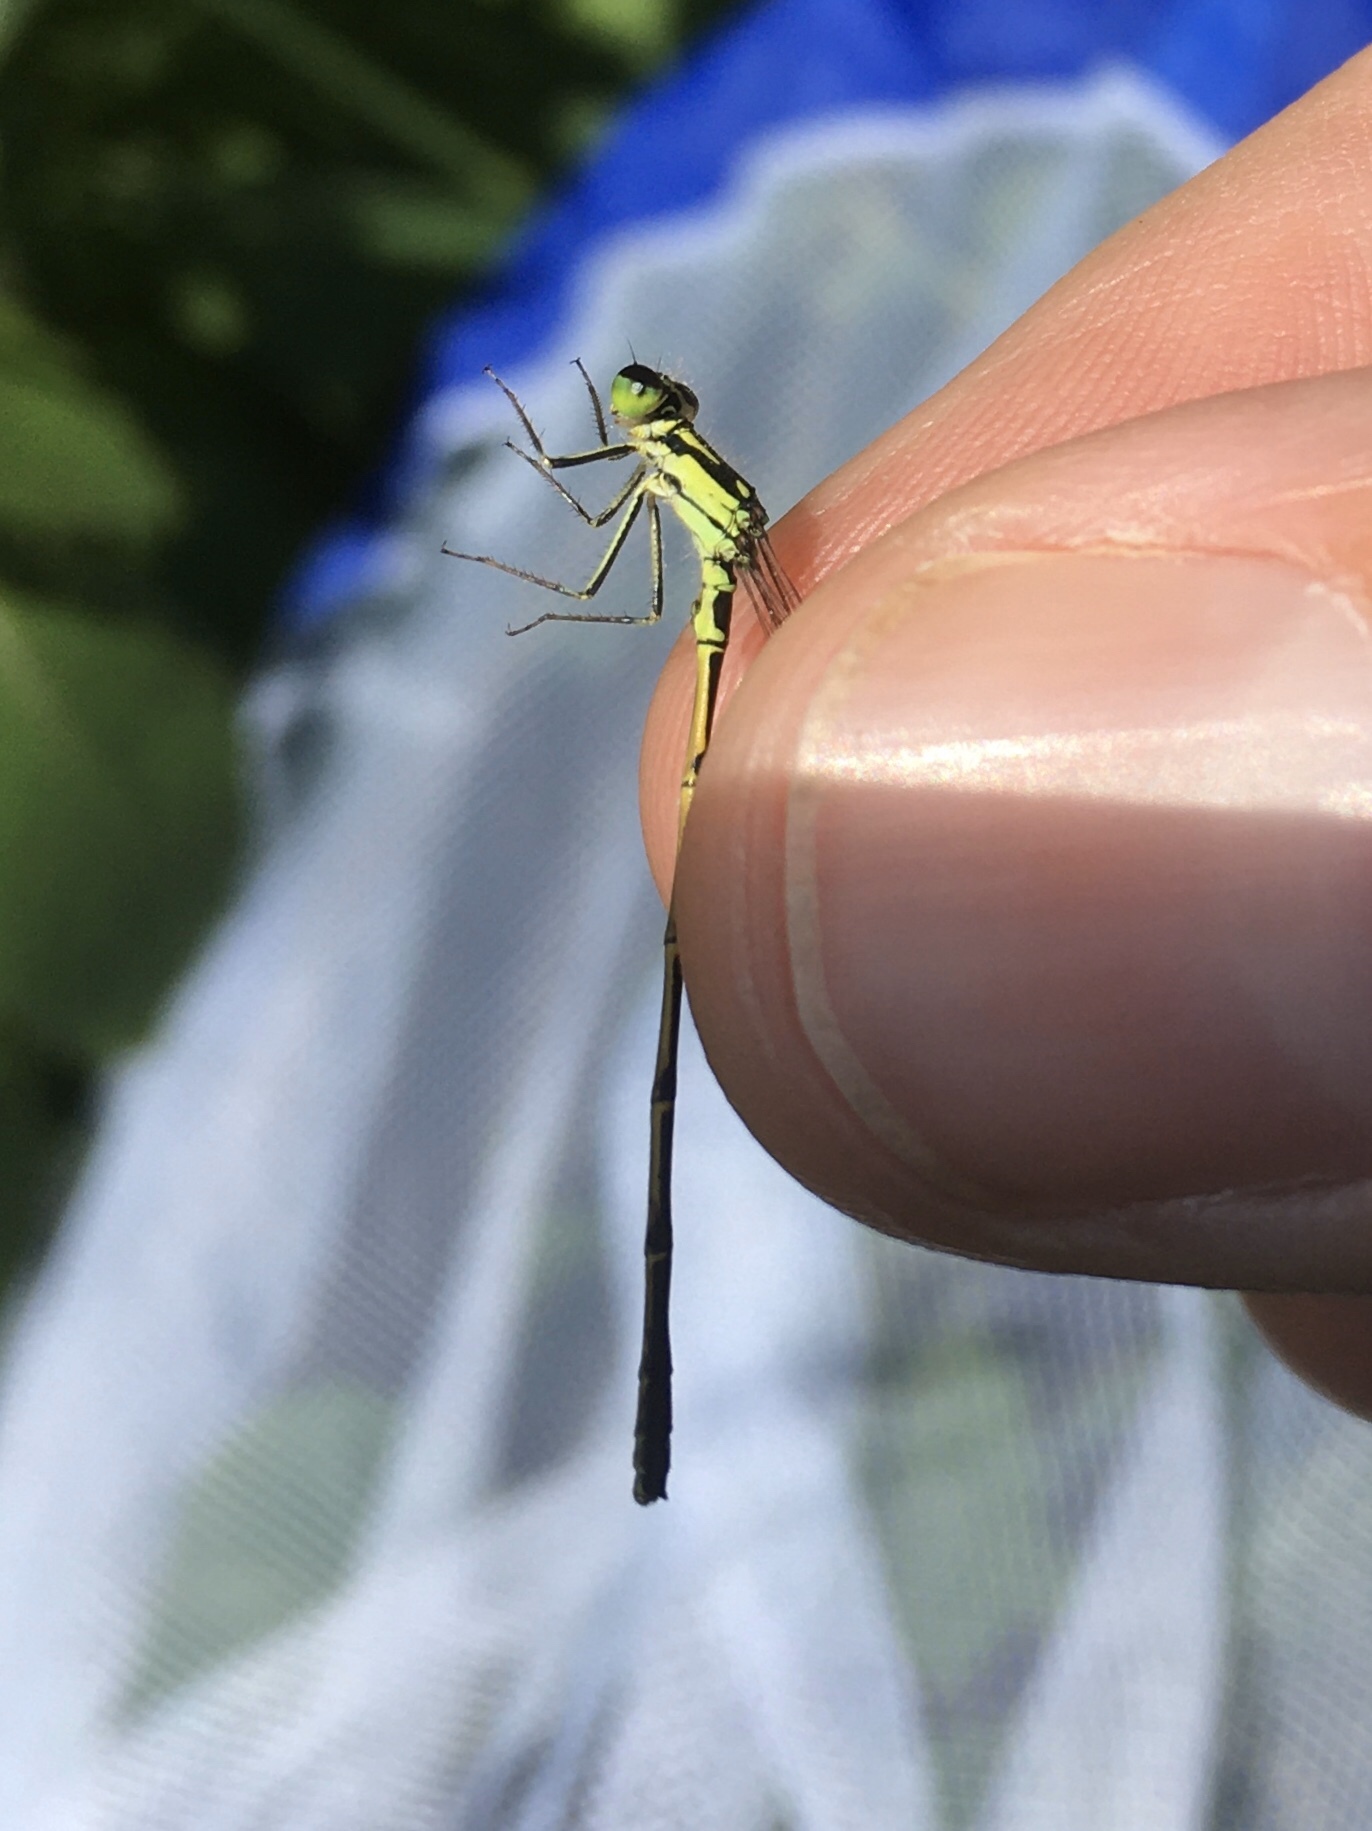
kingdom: Animalia
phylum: Arthropoda
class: Insecta
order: Odonata
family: Coenagrionidae
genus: Ischnura
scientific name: Ischnura posita
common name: Fragile forktail
